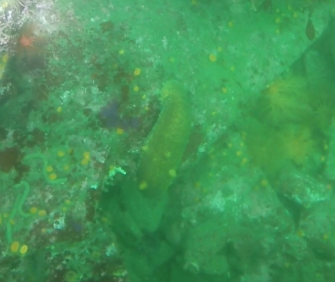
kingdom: Animalia
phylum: Echinodermata
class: Holothuroidea
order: Synallactida
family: Stichopodidae
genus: Apostichopus
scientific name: Apostichopus parvimensis
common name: Warty sea cucumber
